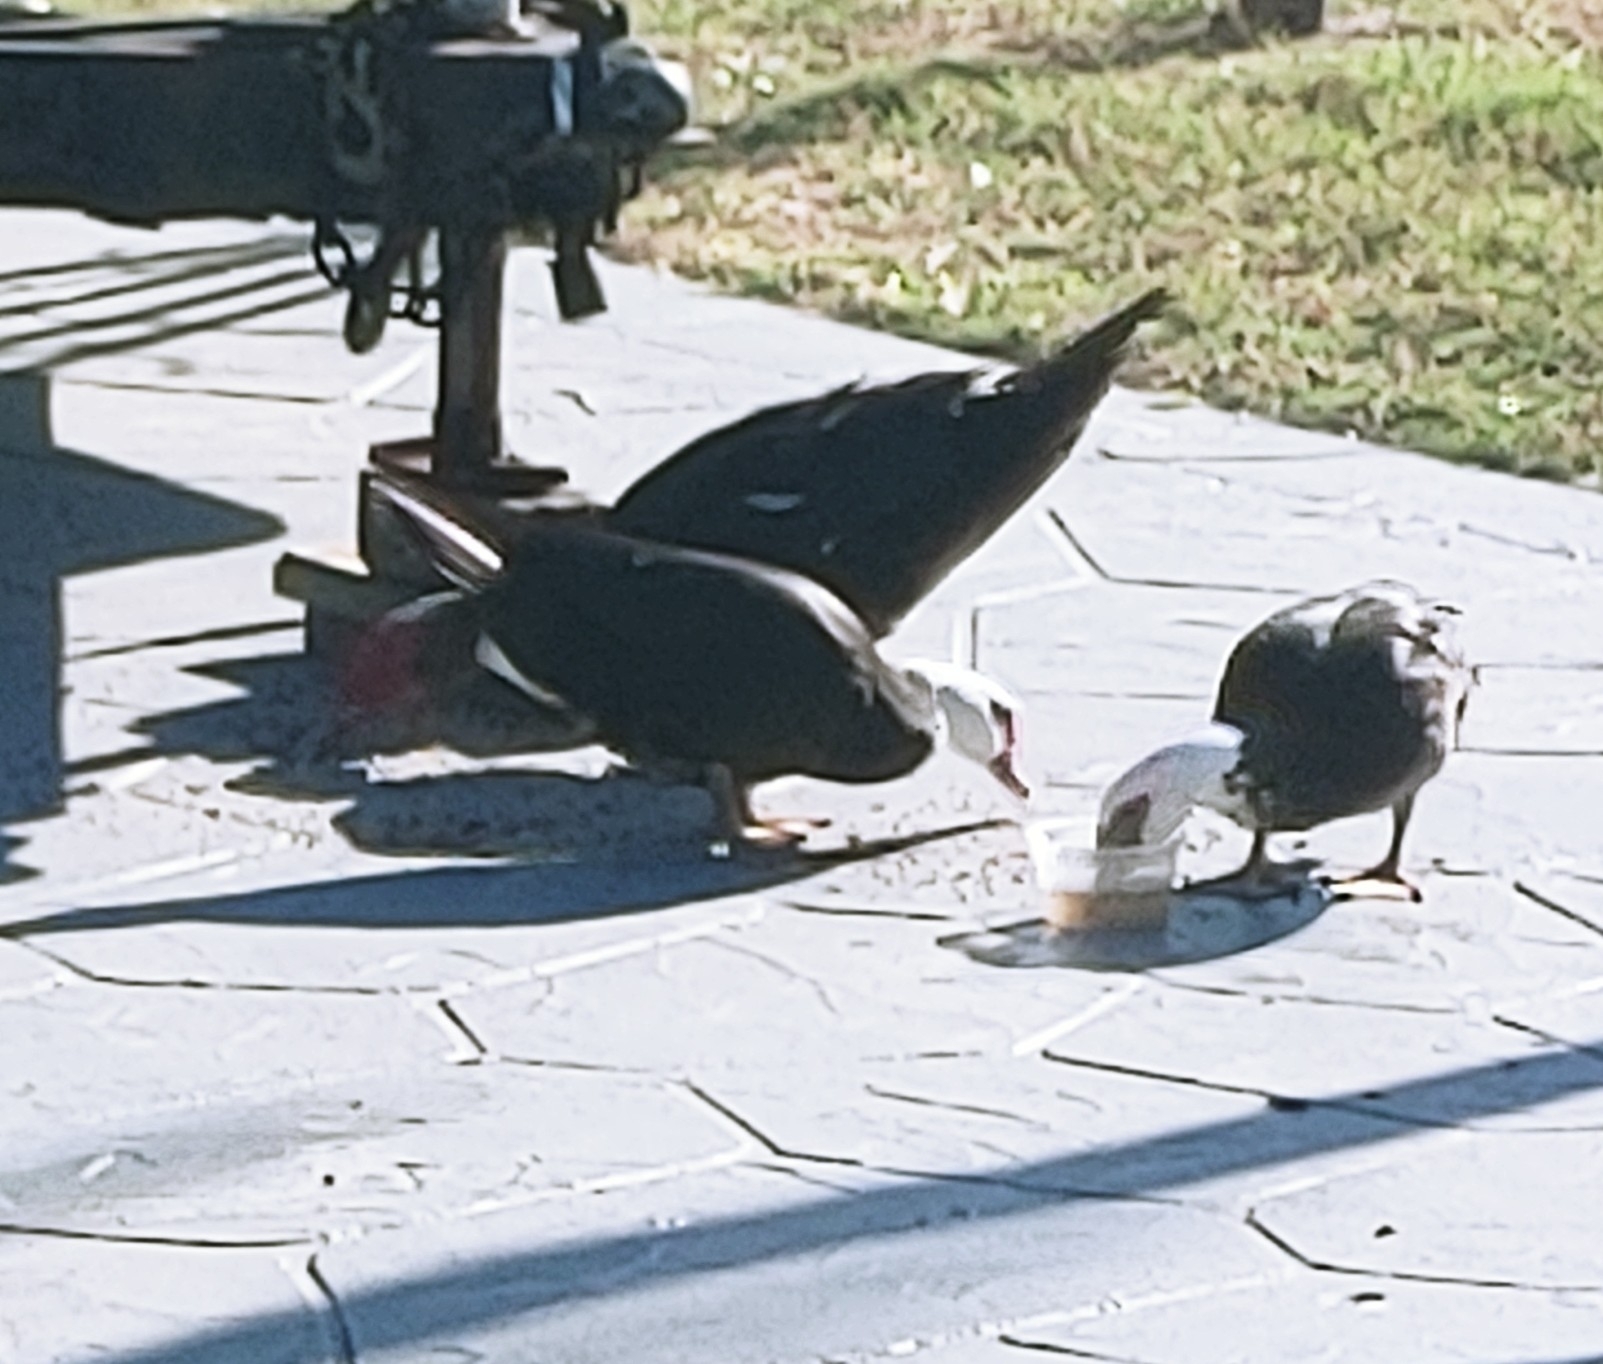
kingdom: Animalia
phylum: Chordata
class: Aves
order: Anseriformes
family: Anatidae
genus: Cairina
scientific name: Cairina moschata
